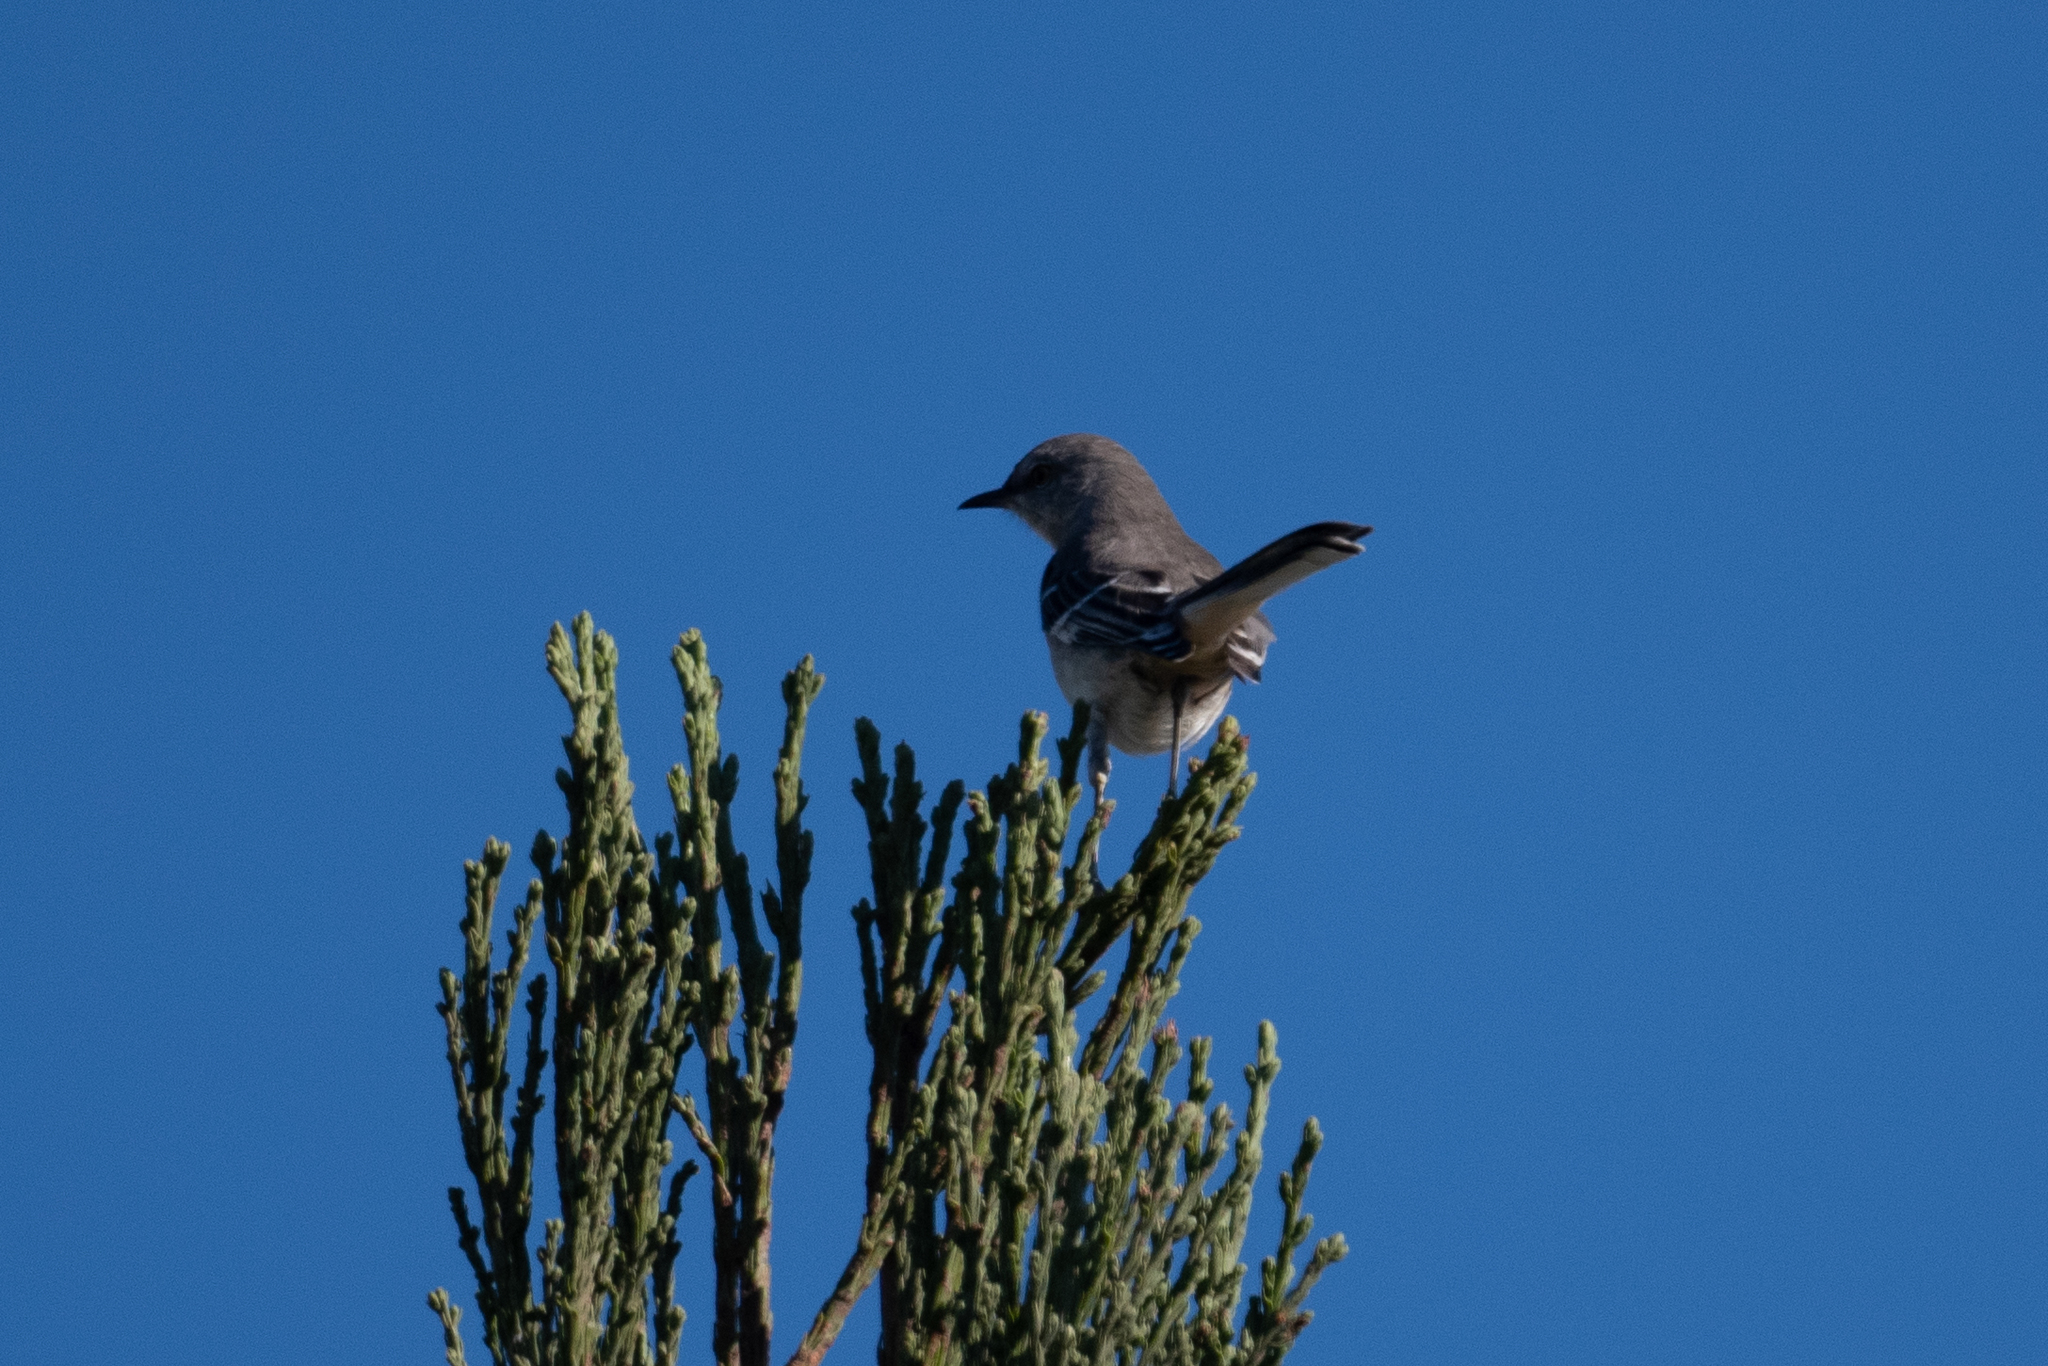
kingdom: Animalia
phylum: Chordata
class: Aves
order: Passeriformes
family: Mimidae
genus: Mimus
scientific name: Mimus polyglottos
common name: Northern mockingbird
